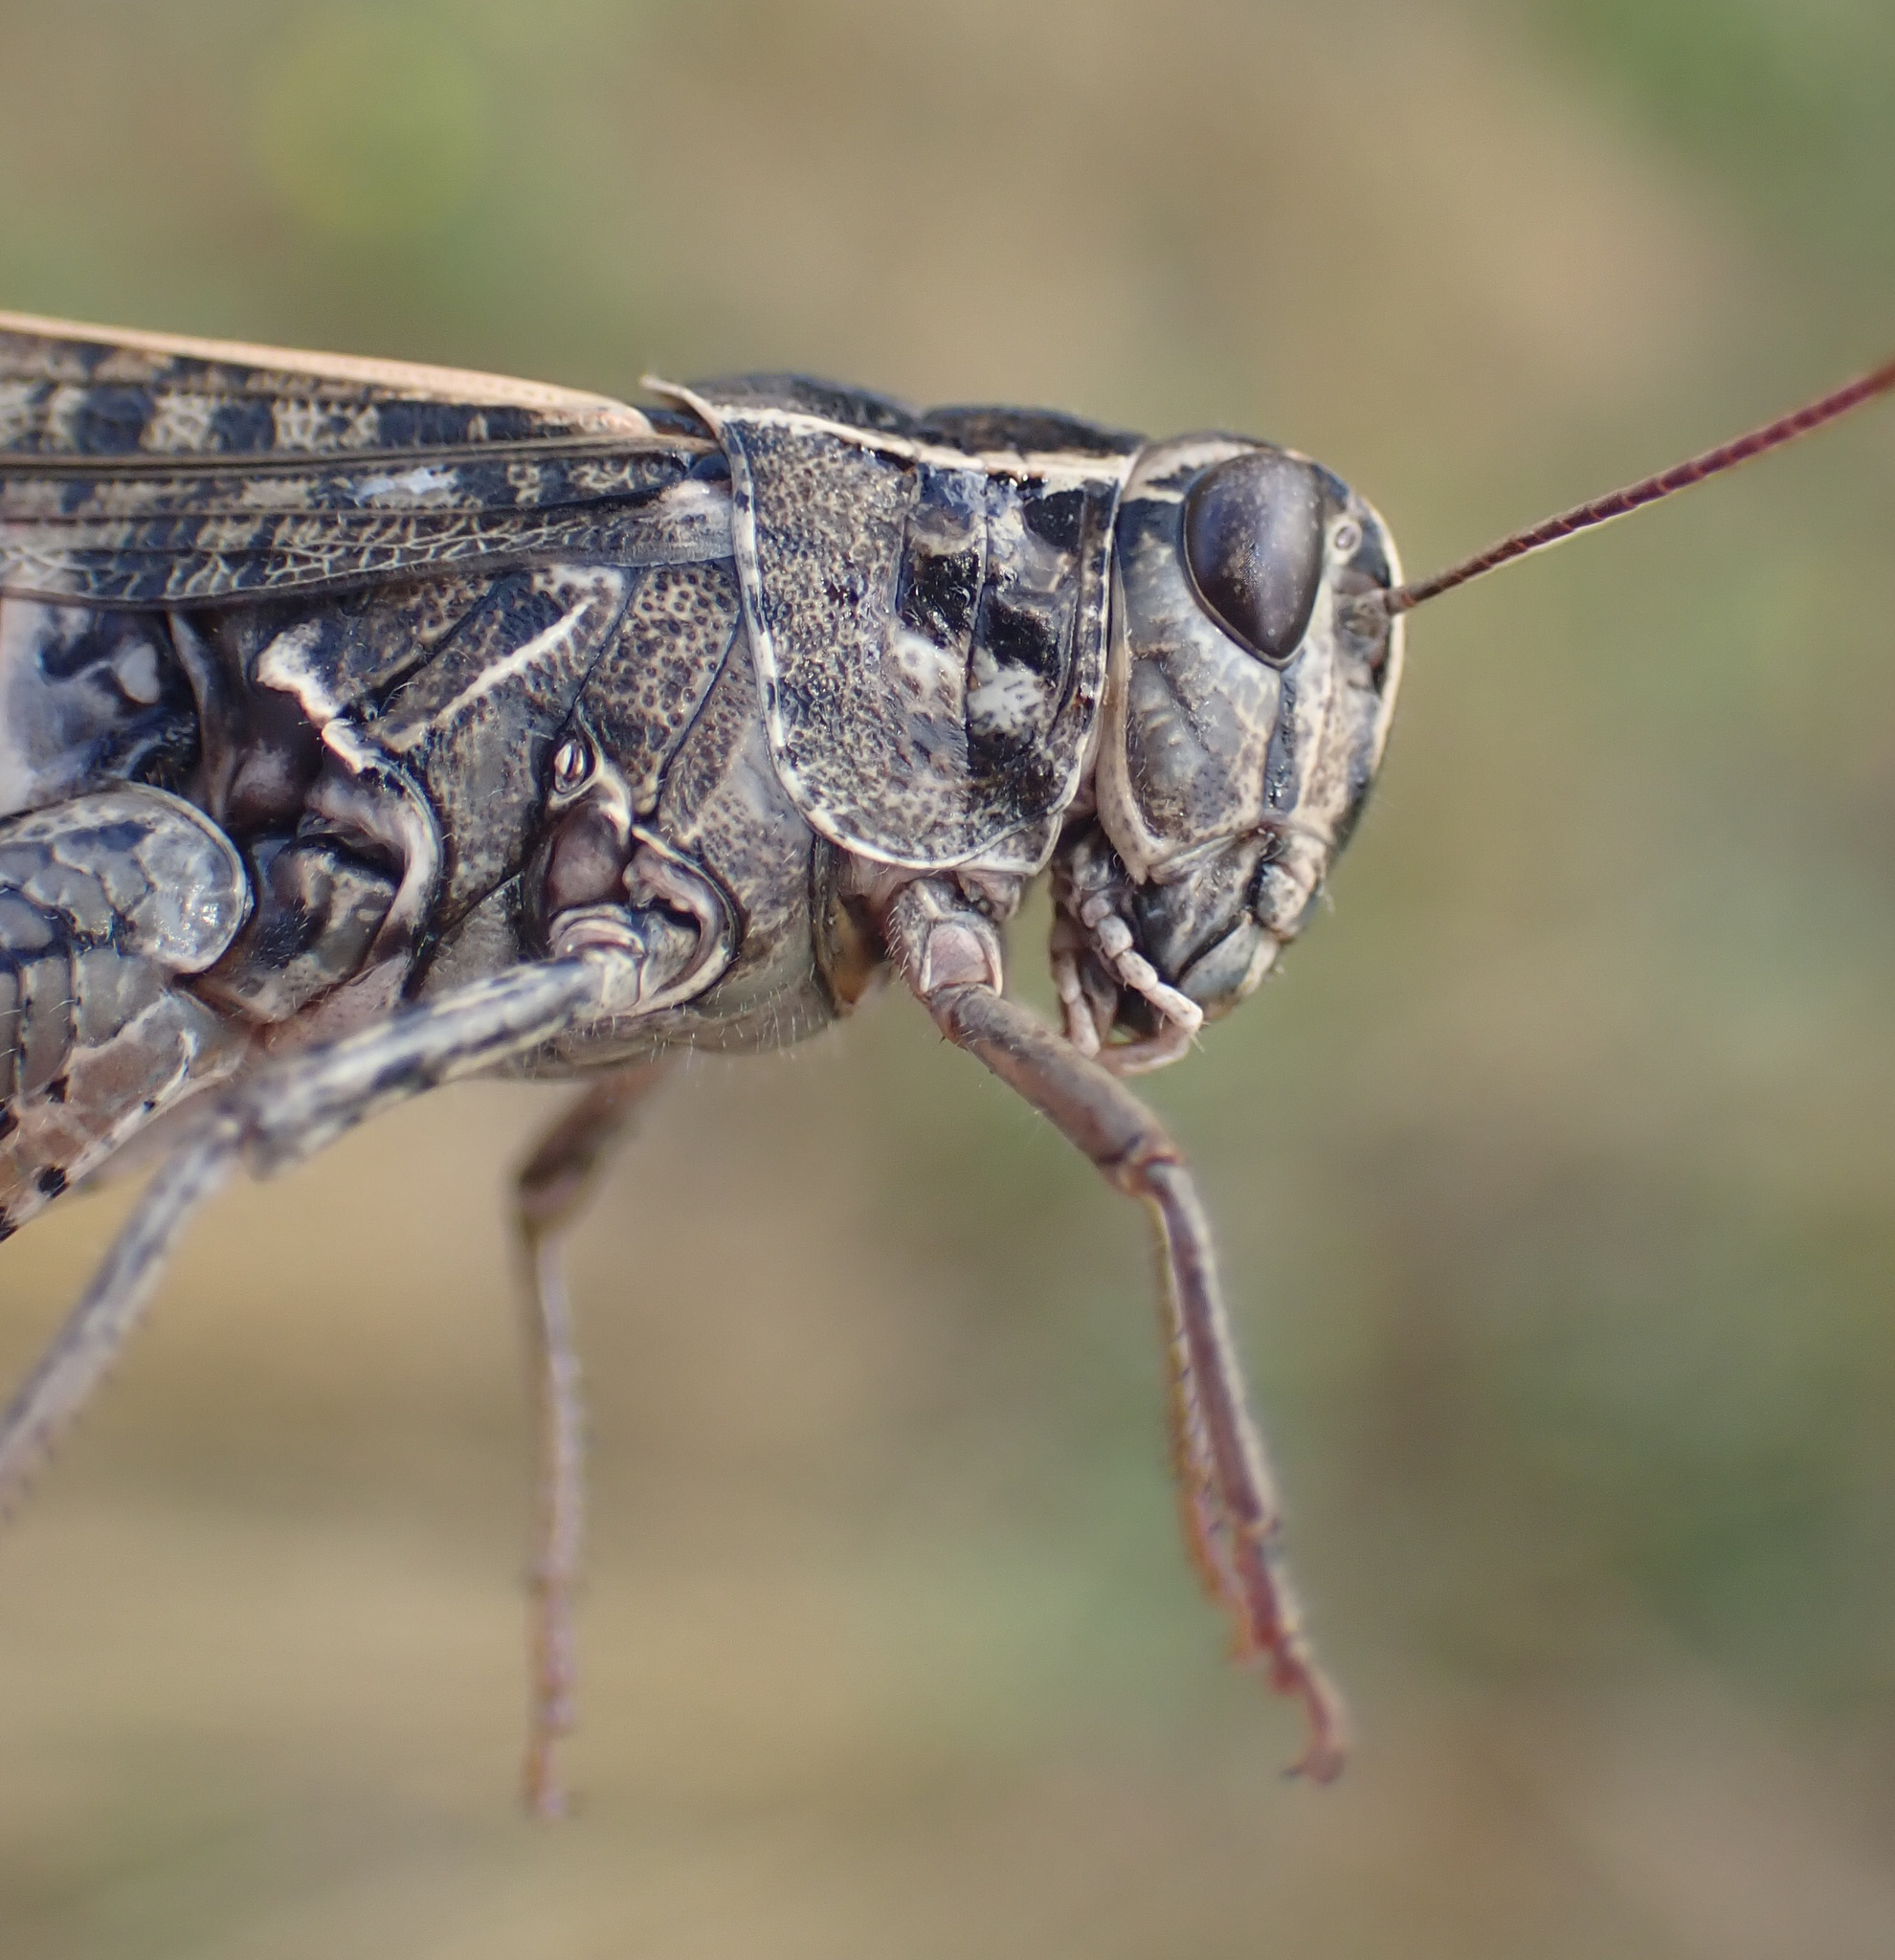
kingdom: Animalia
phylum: Arthropoda
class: Insecta
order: Orthoptera
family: Acrididae
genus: Calliptamus
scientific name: Calliptamus italicus
